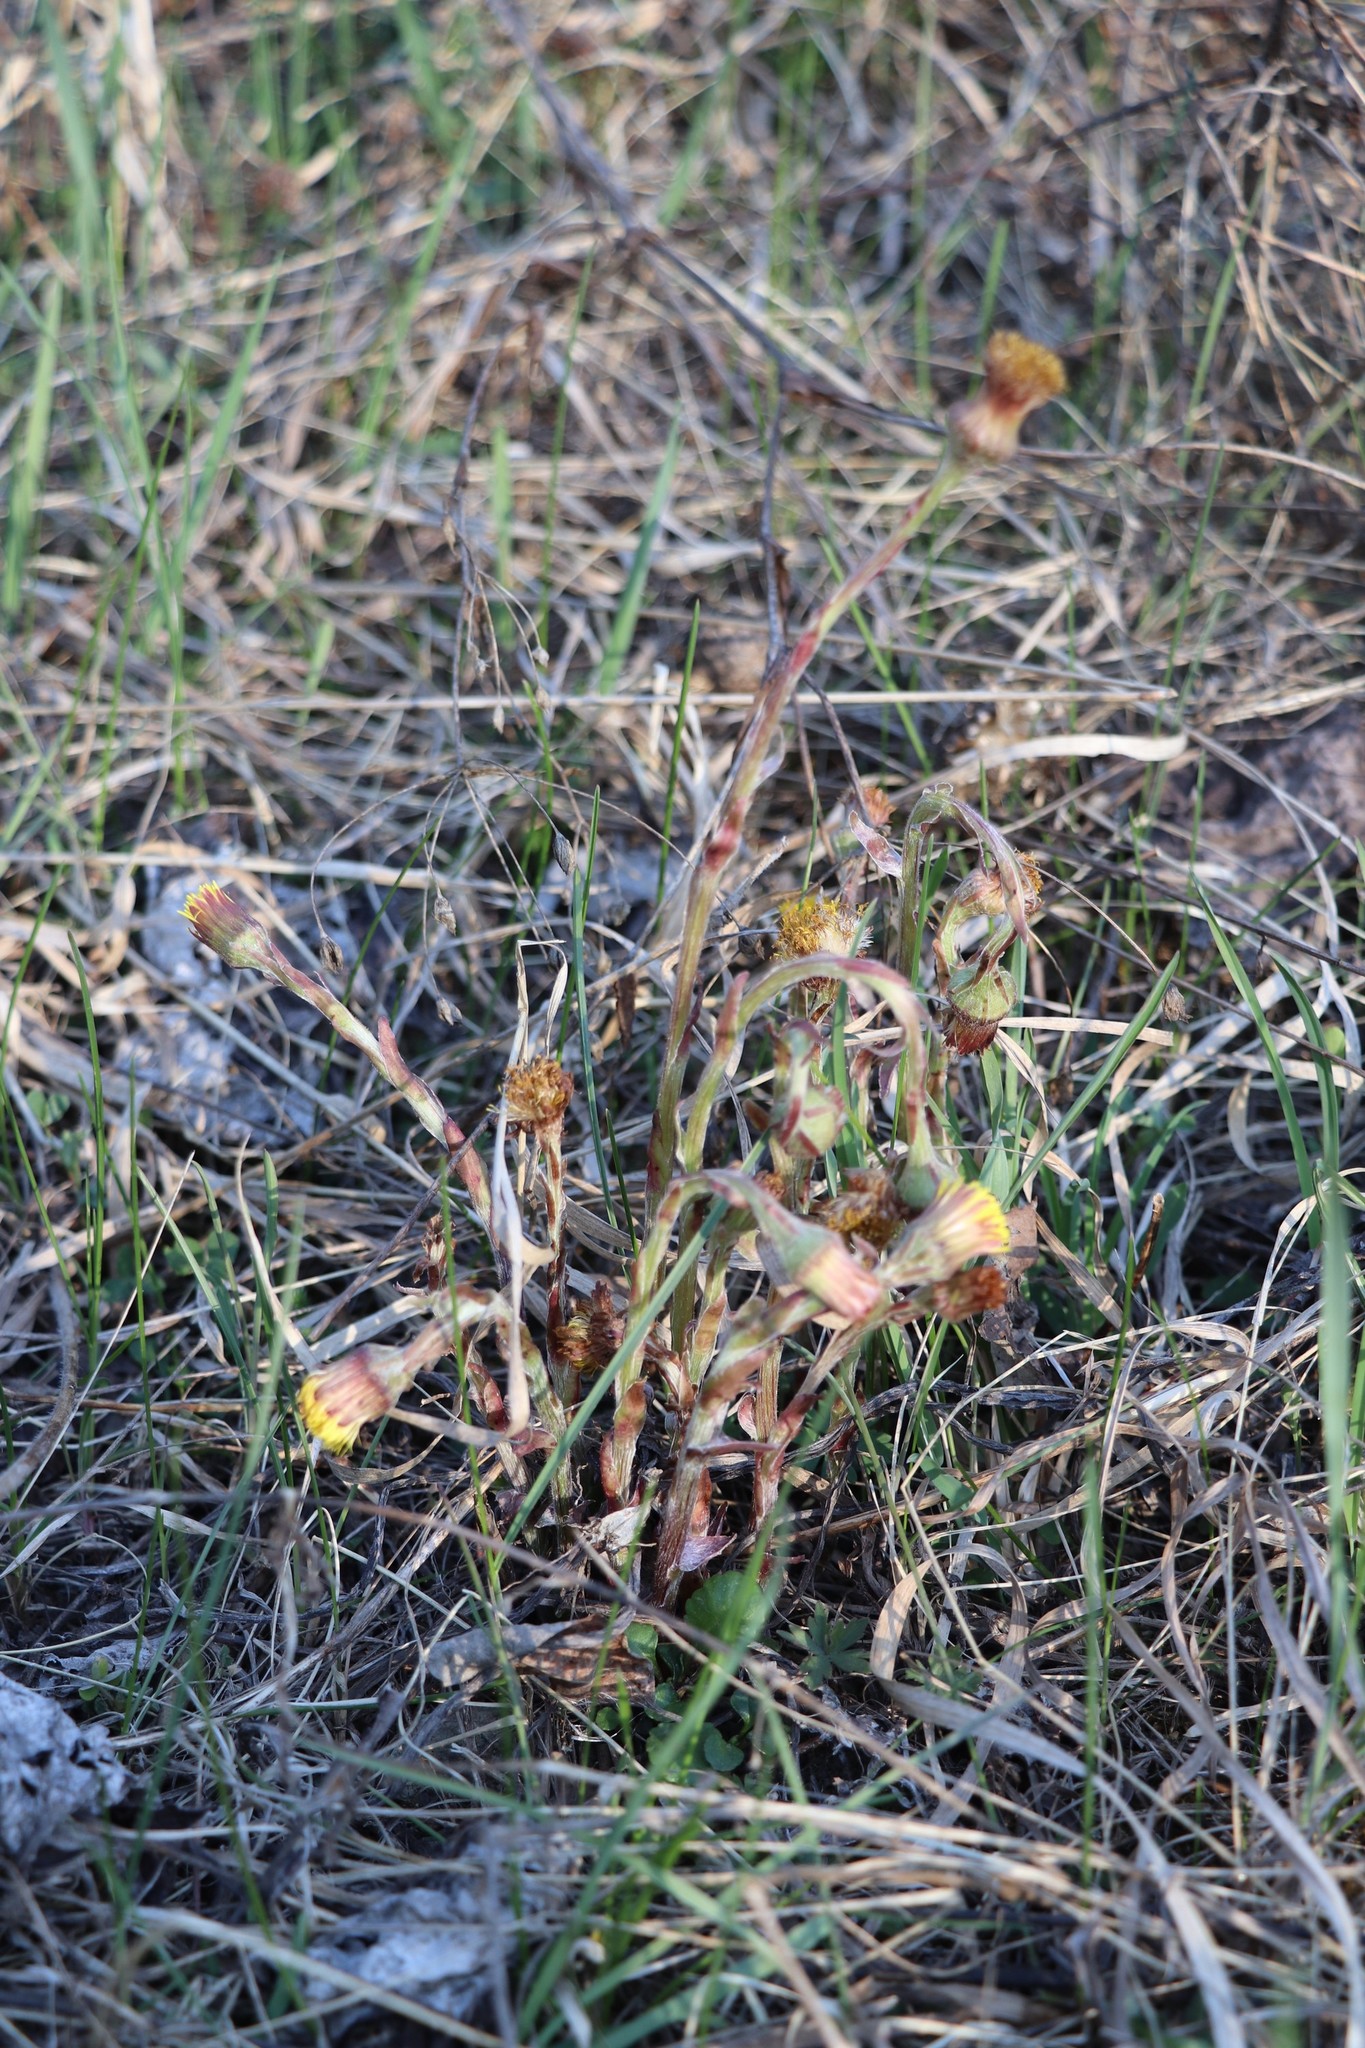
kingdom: Plantae
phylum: Tracheophyta
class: Magnoliopsida
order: Asterales
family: Asteraceae
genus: Tussilago
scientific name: Tussilago farfara
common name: Coltsfoot
